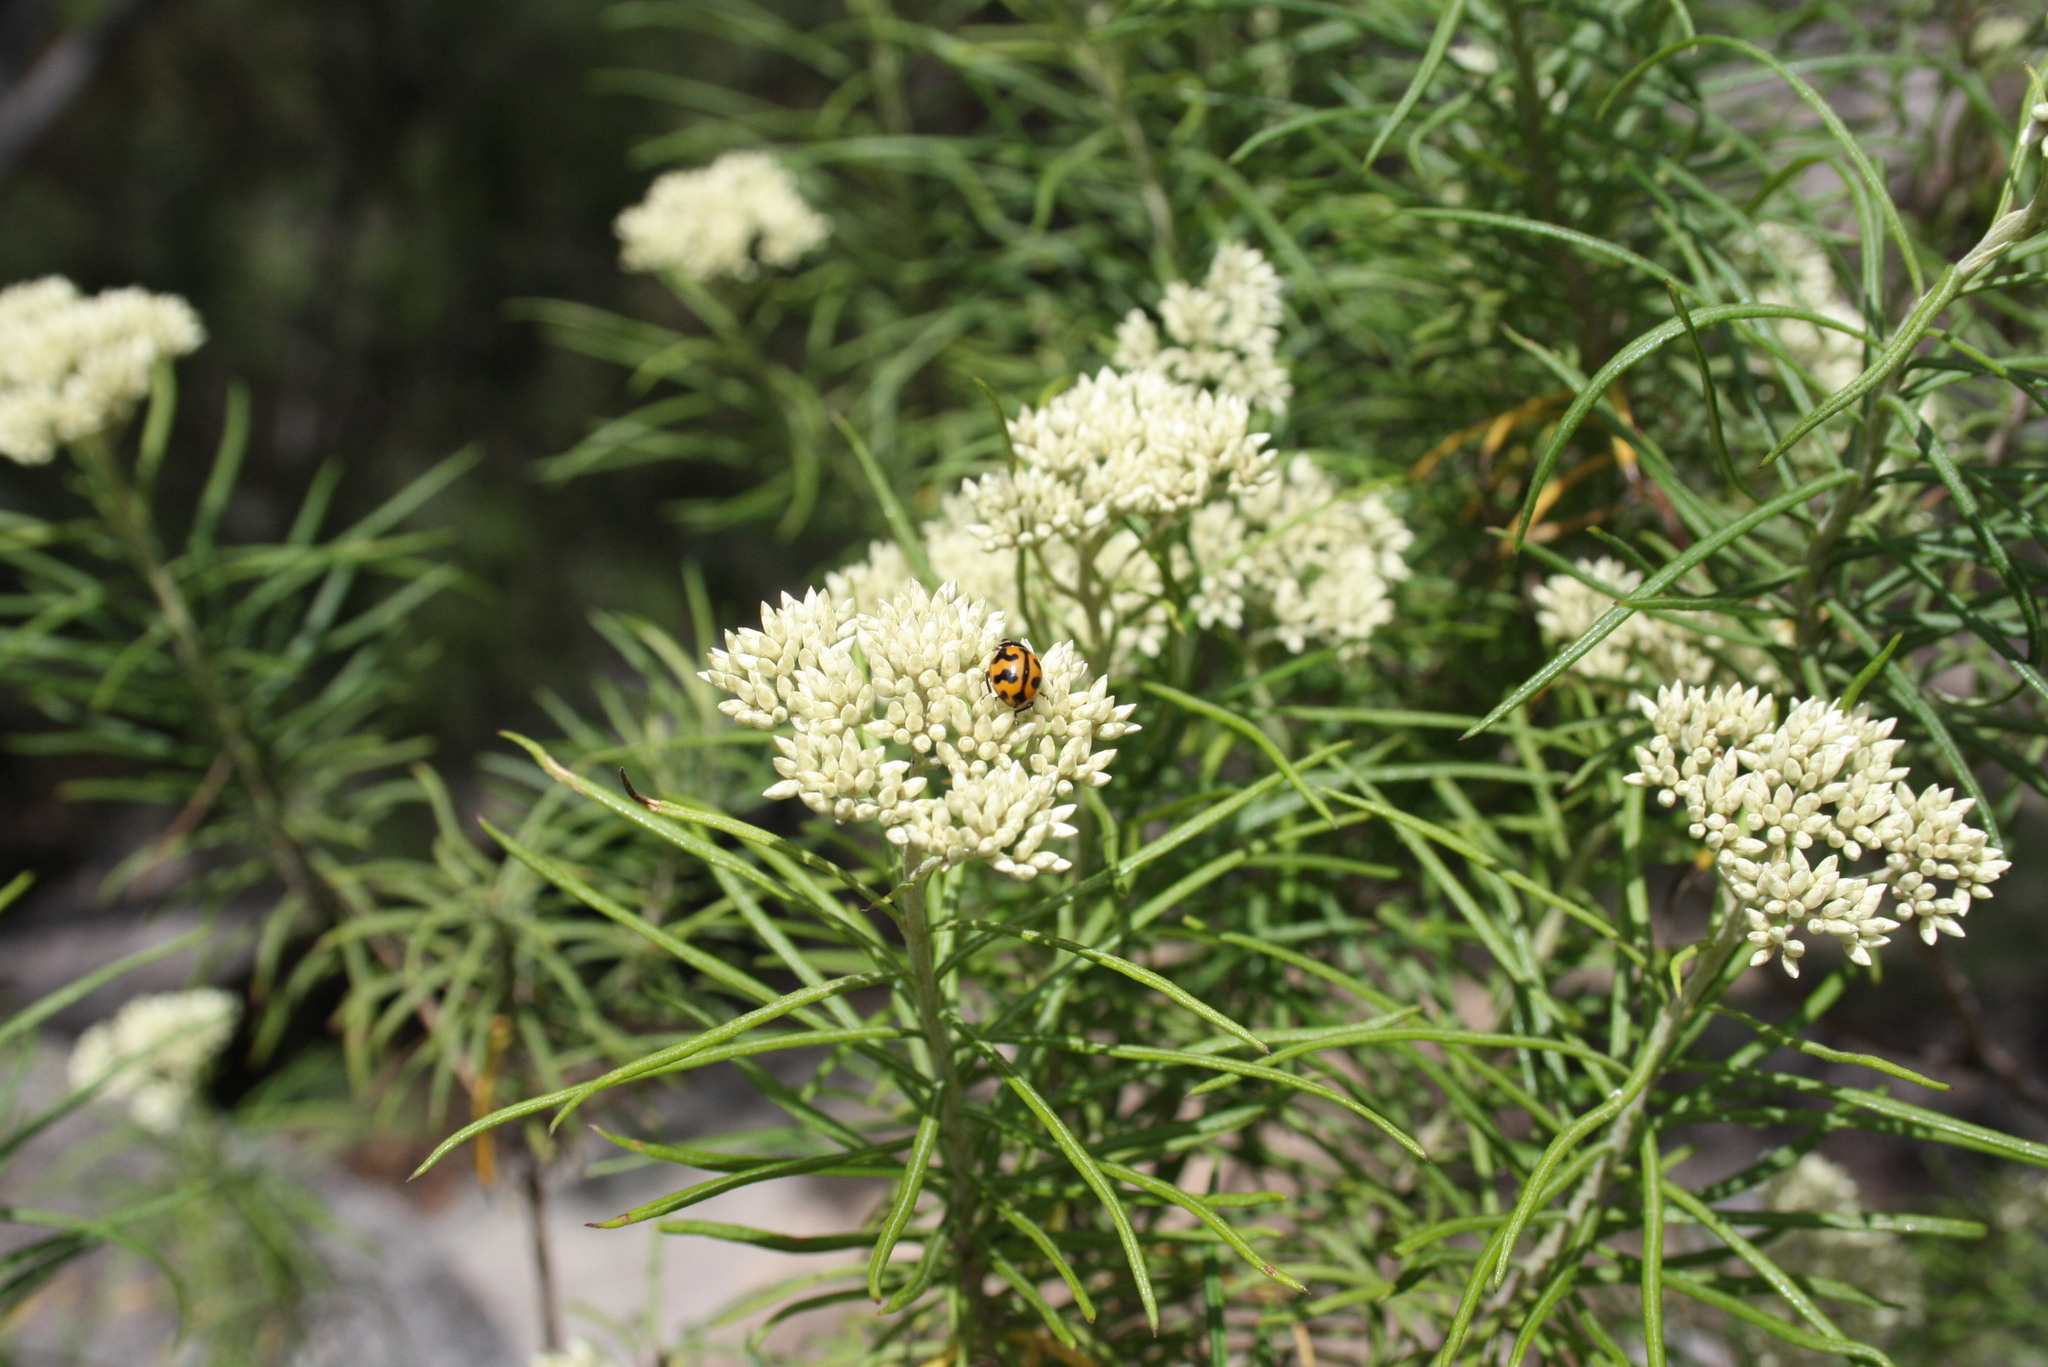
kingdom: Animalia
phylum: Arthropoda
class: Insecta
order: Coleoptera
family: Coccinellidae
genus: Coccinella
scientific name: Coccinella transversalis
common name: Transverse lady beetle
